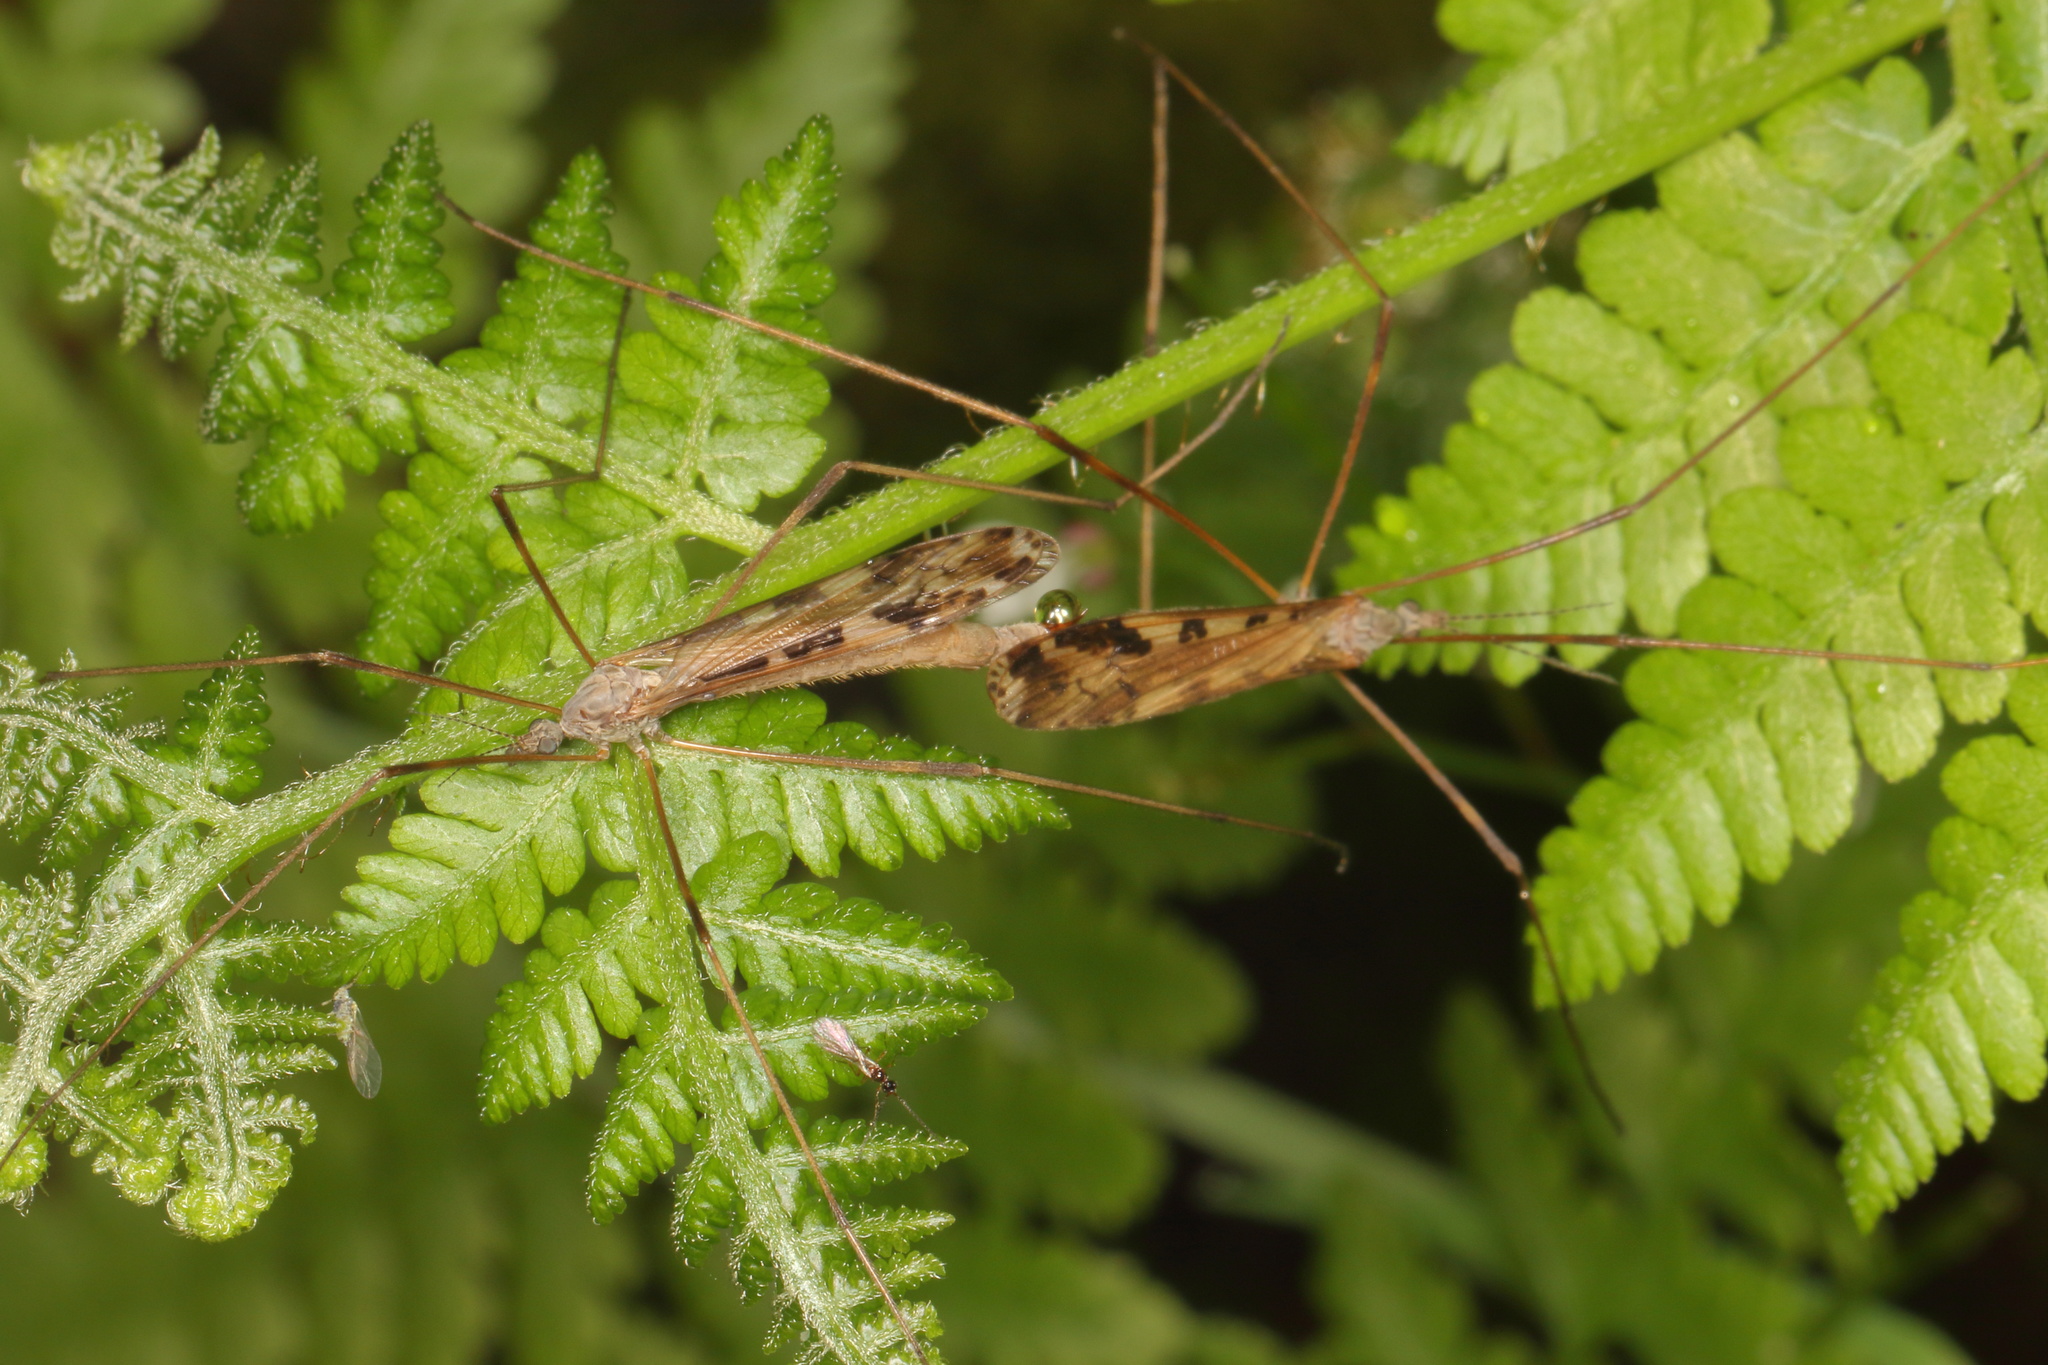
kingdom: Animalia
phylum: Arthropoda
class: Insecta
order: Diptera
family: Limoniidae
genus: Paralimnophila
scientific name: Paralimnophila skusei
